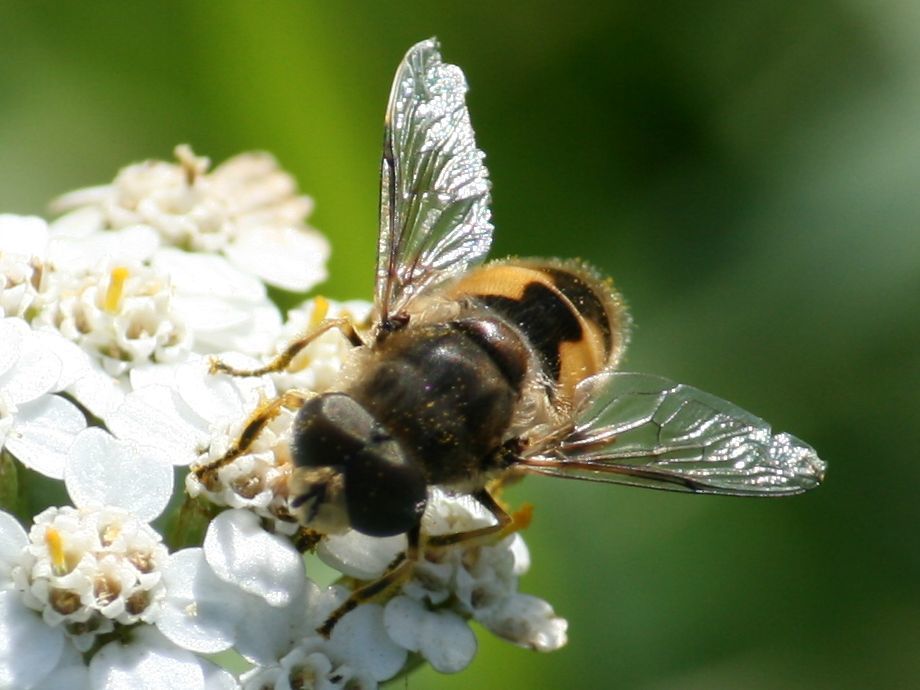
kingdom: Animalia
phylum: Arthropoda
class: Insecta
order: Diptera
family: Syrphidae
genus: Eristalis
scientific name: Eristalis arbustorum
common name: Hover fly
